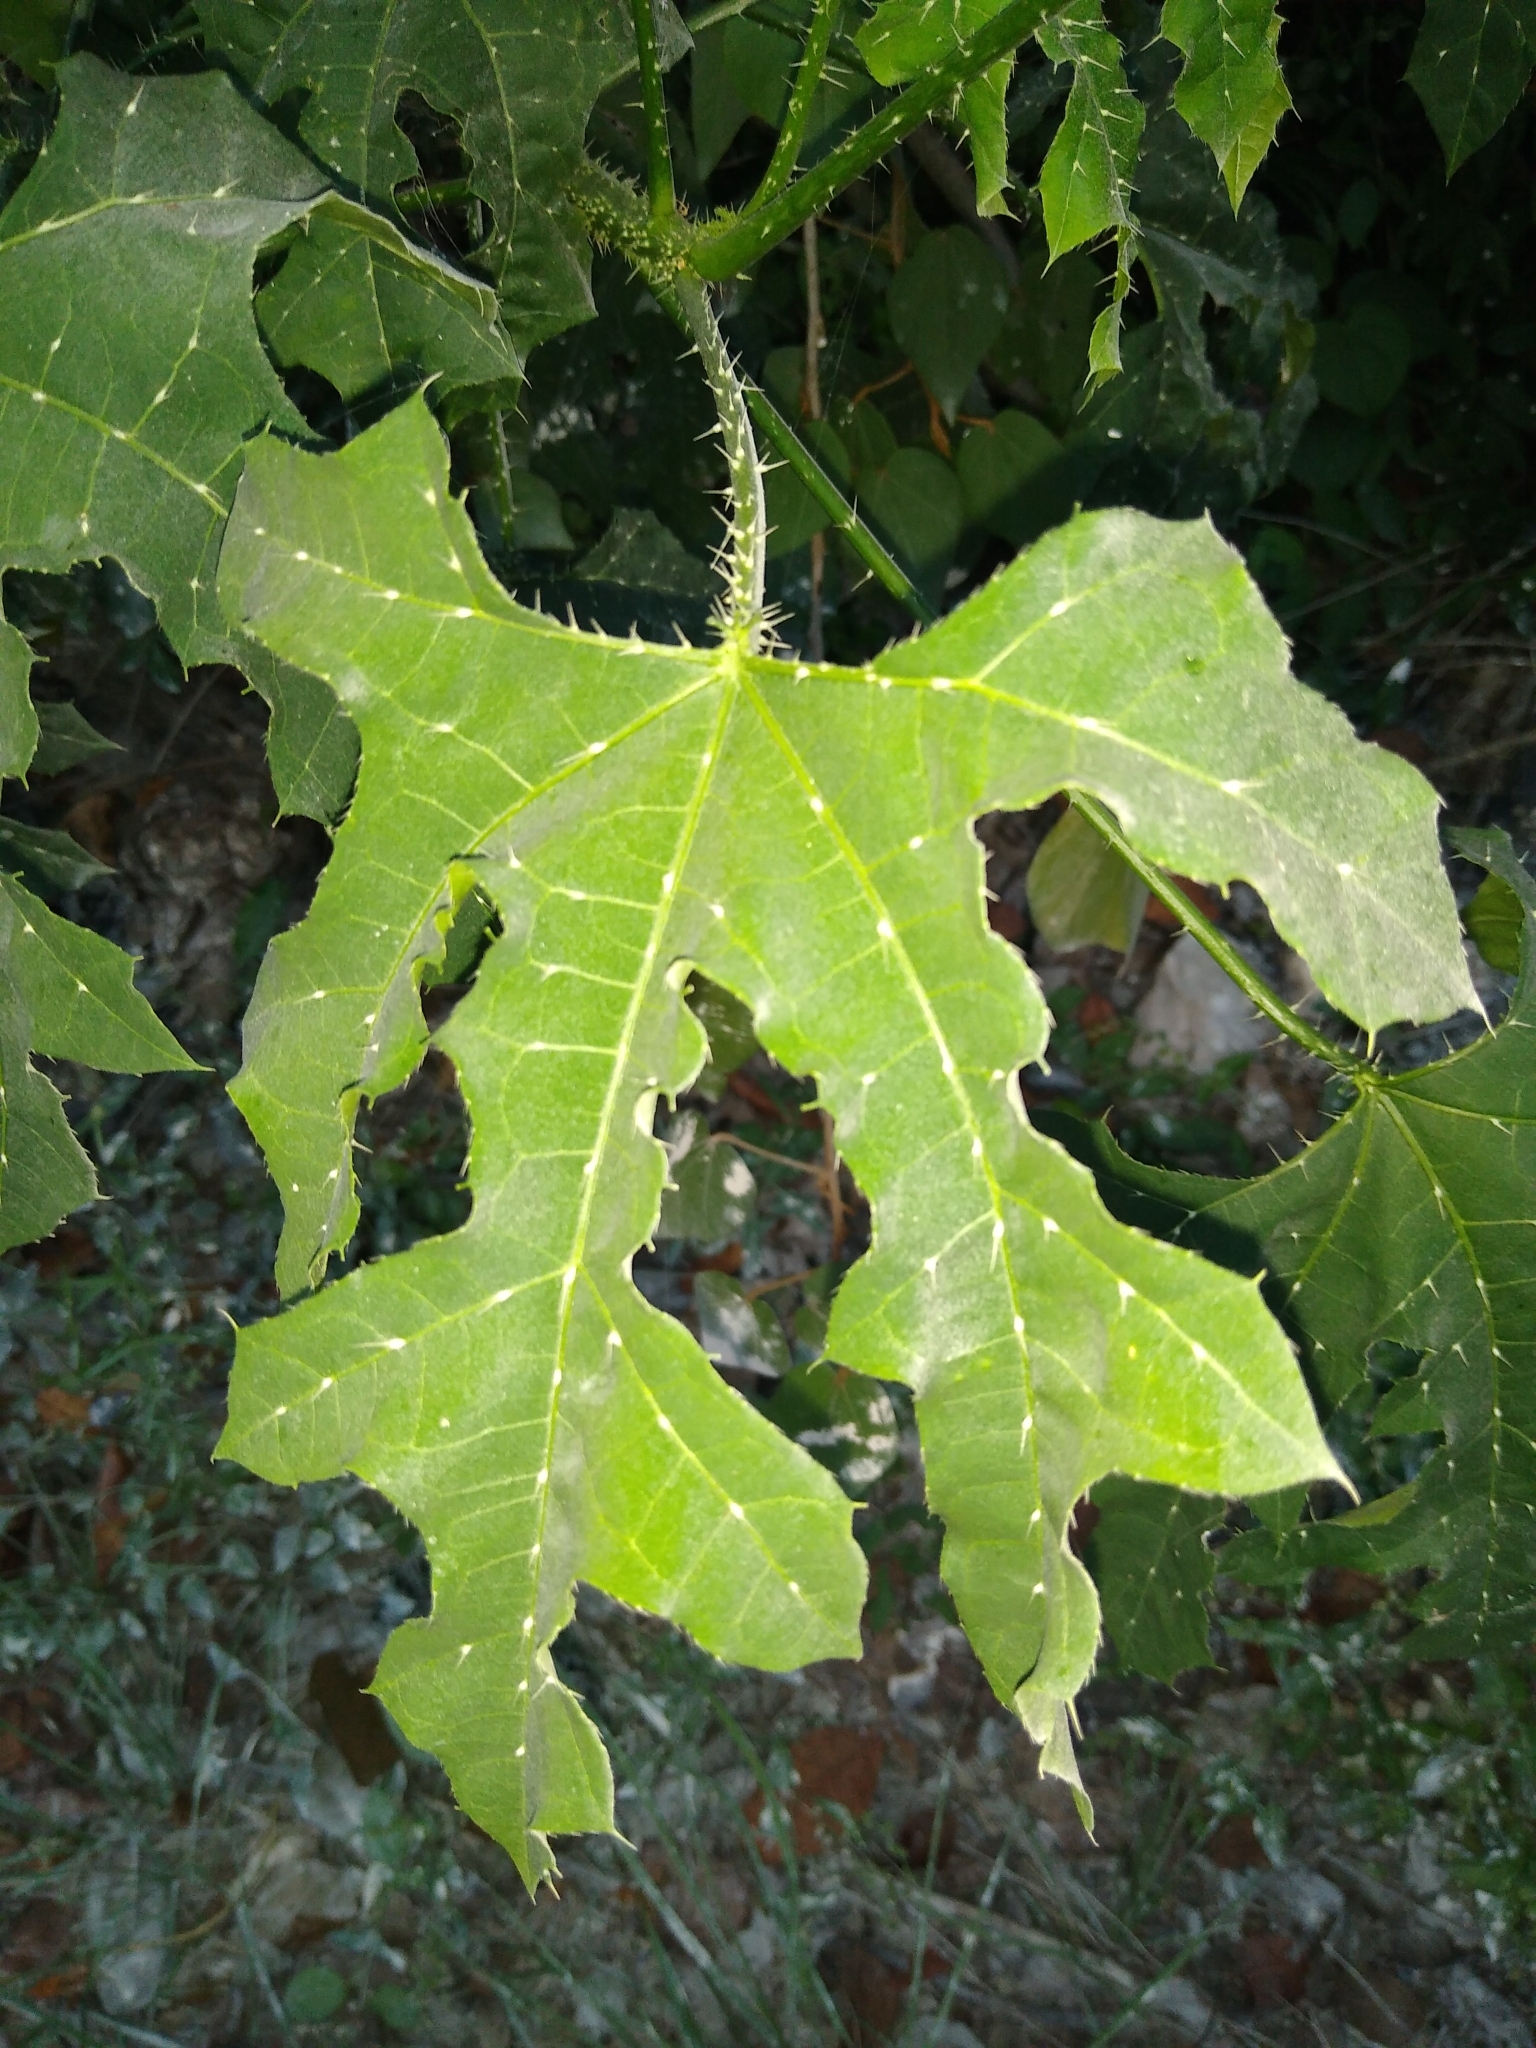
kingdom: Plantae
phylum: Tracheophyta
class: Magnoliopsida
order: Malpighiales
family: Euphorbiaceae
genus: Cnidoscolus
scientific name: Cnidoscolus souzae
